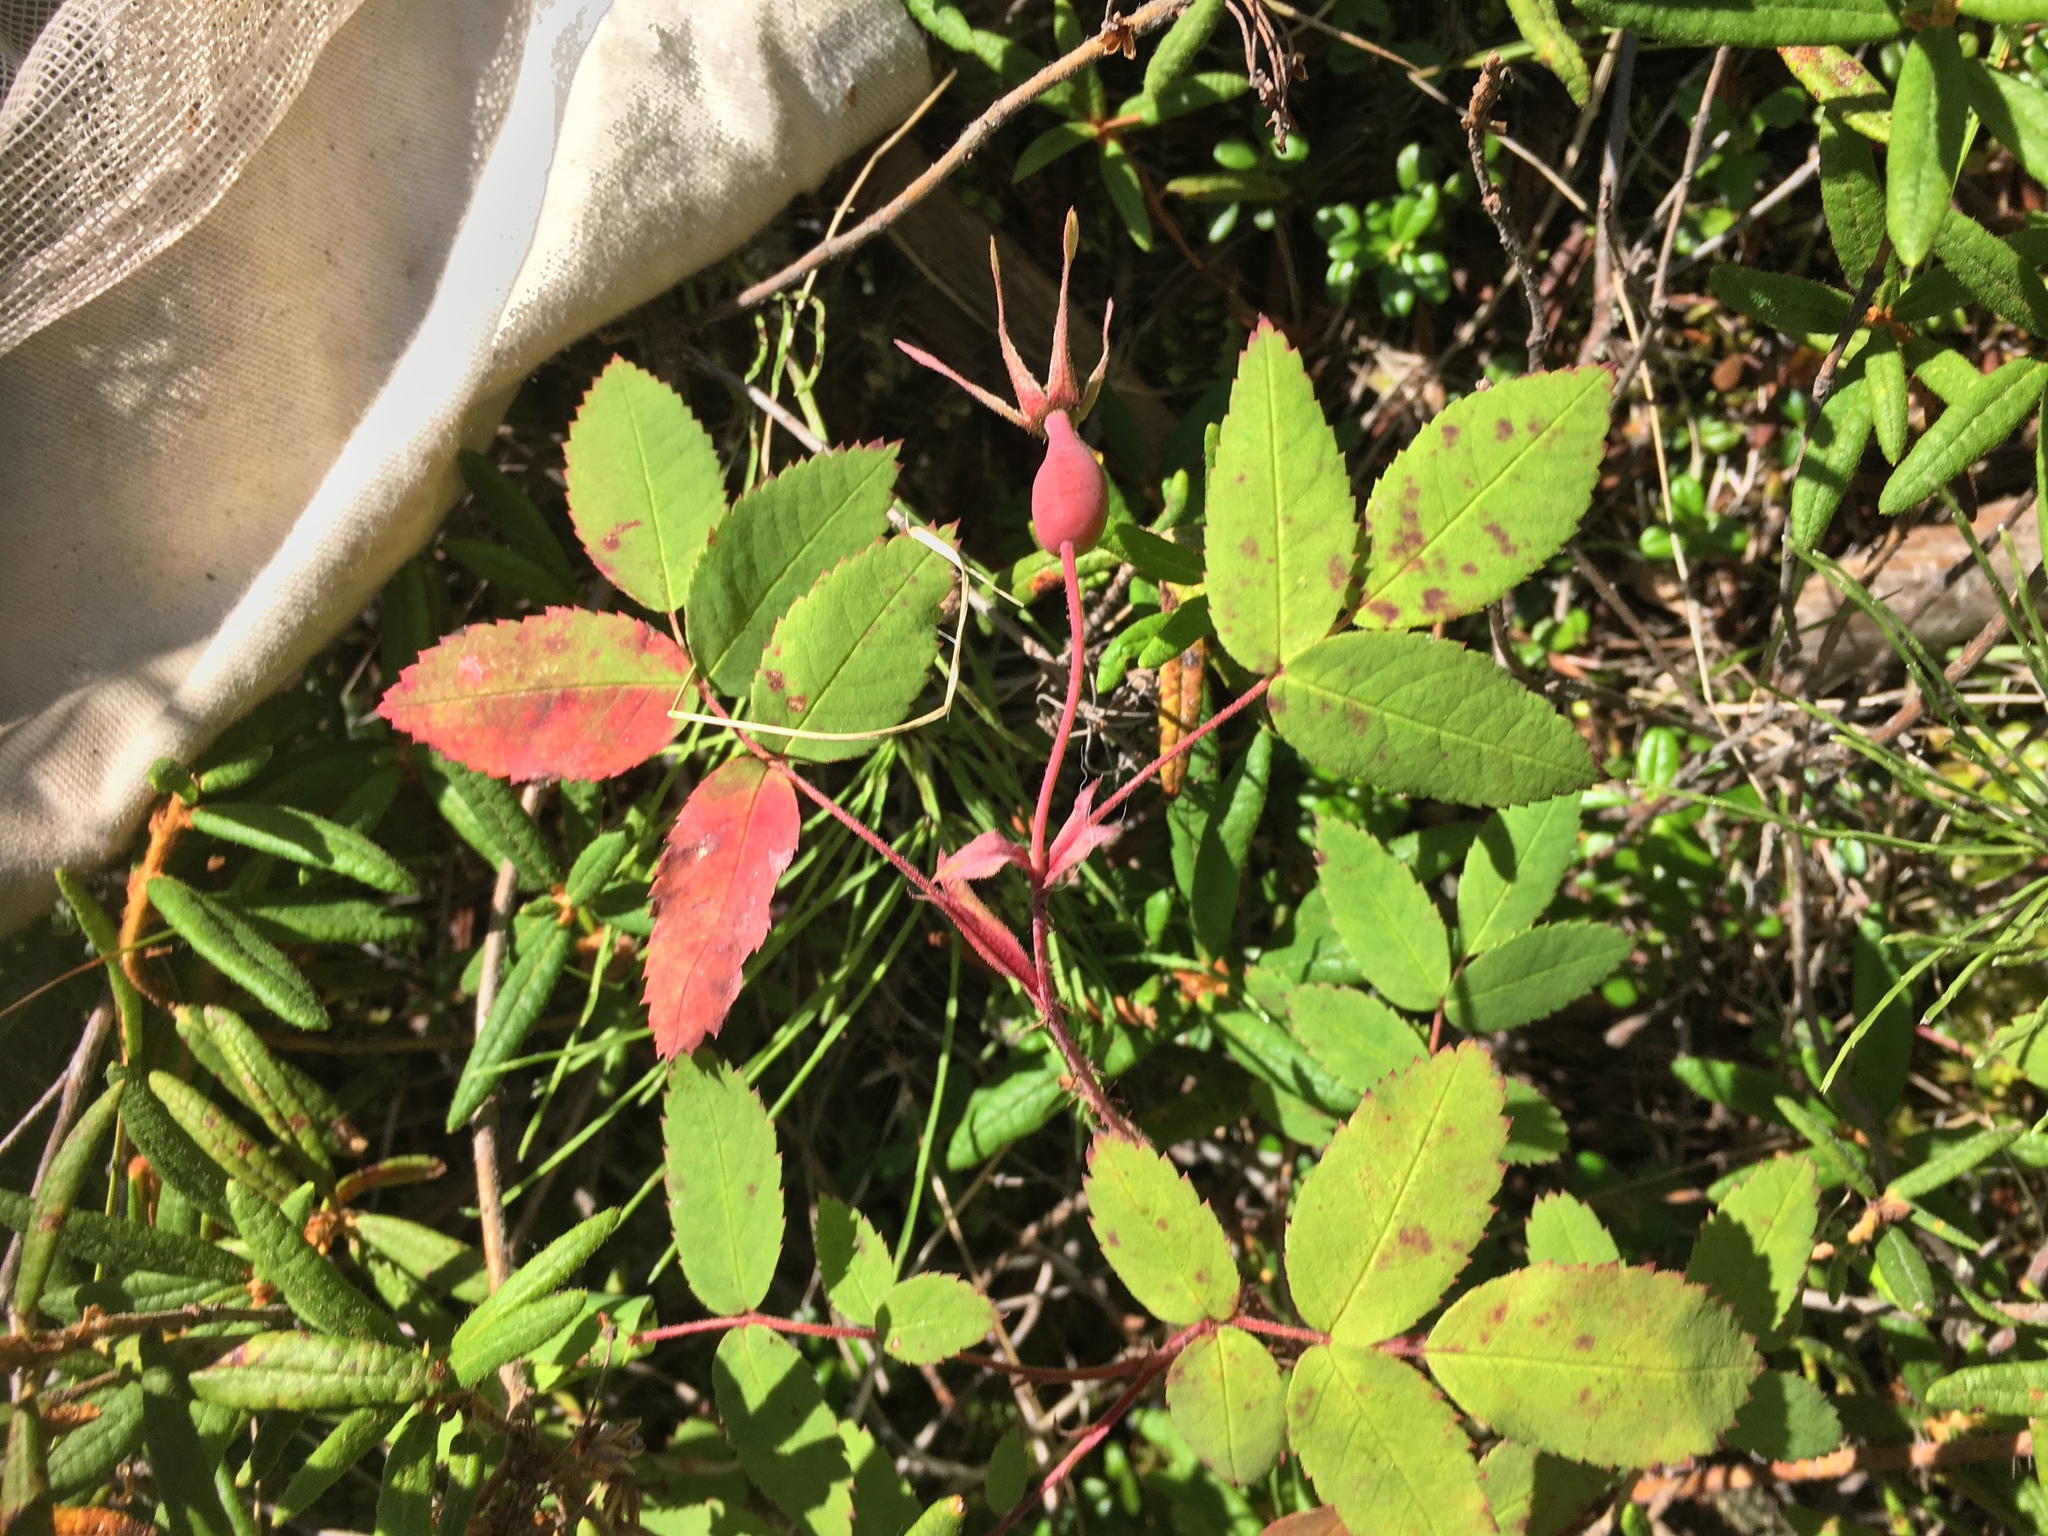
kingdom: Plantae
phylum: Tracheophyta
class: Magnoliopsida
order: Rosales
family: Rosaceae
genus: Rosa
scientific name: Rosa acicularis
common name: Prickly rose
